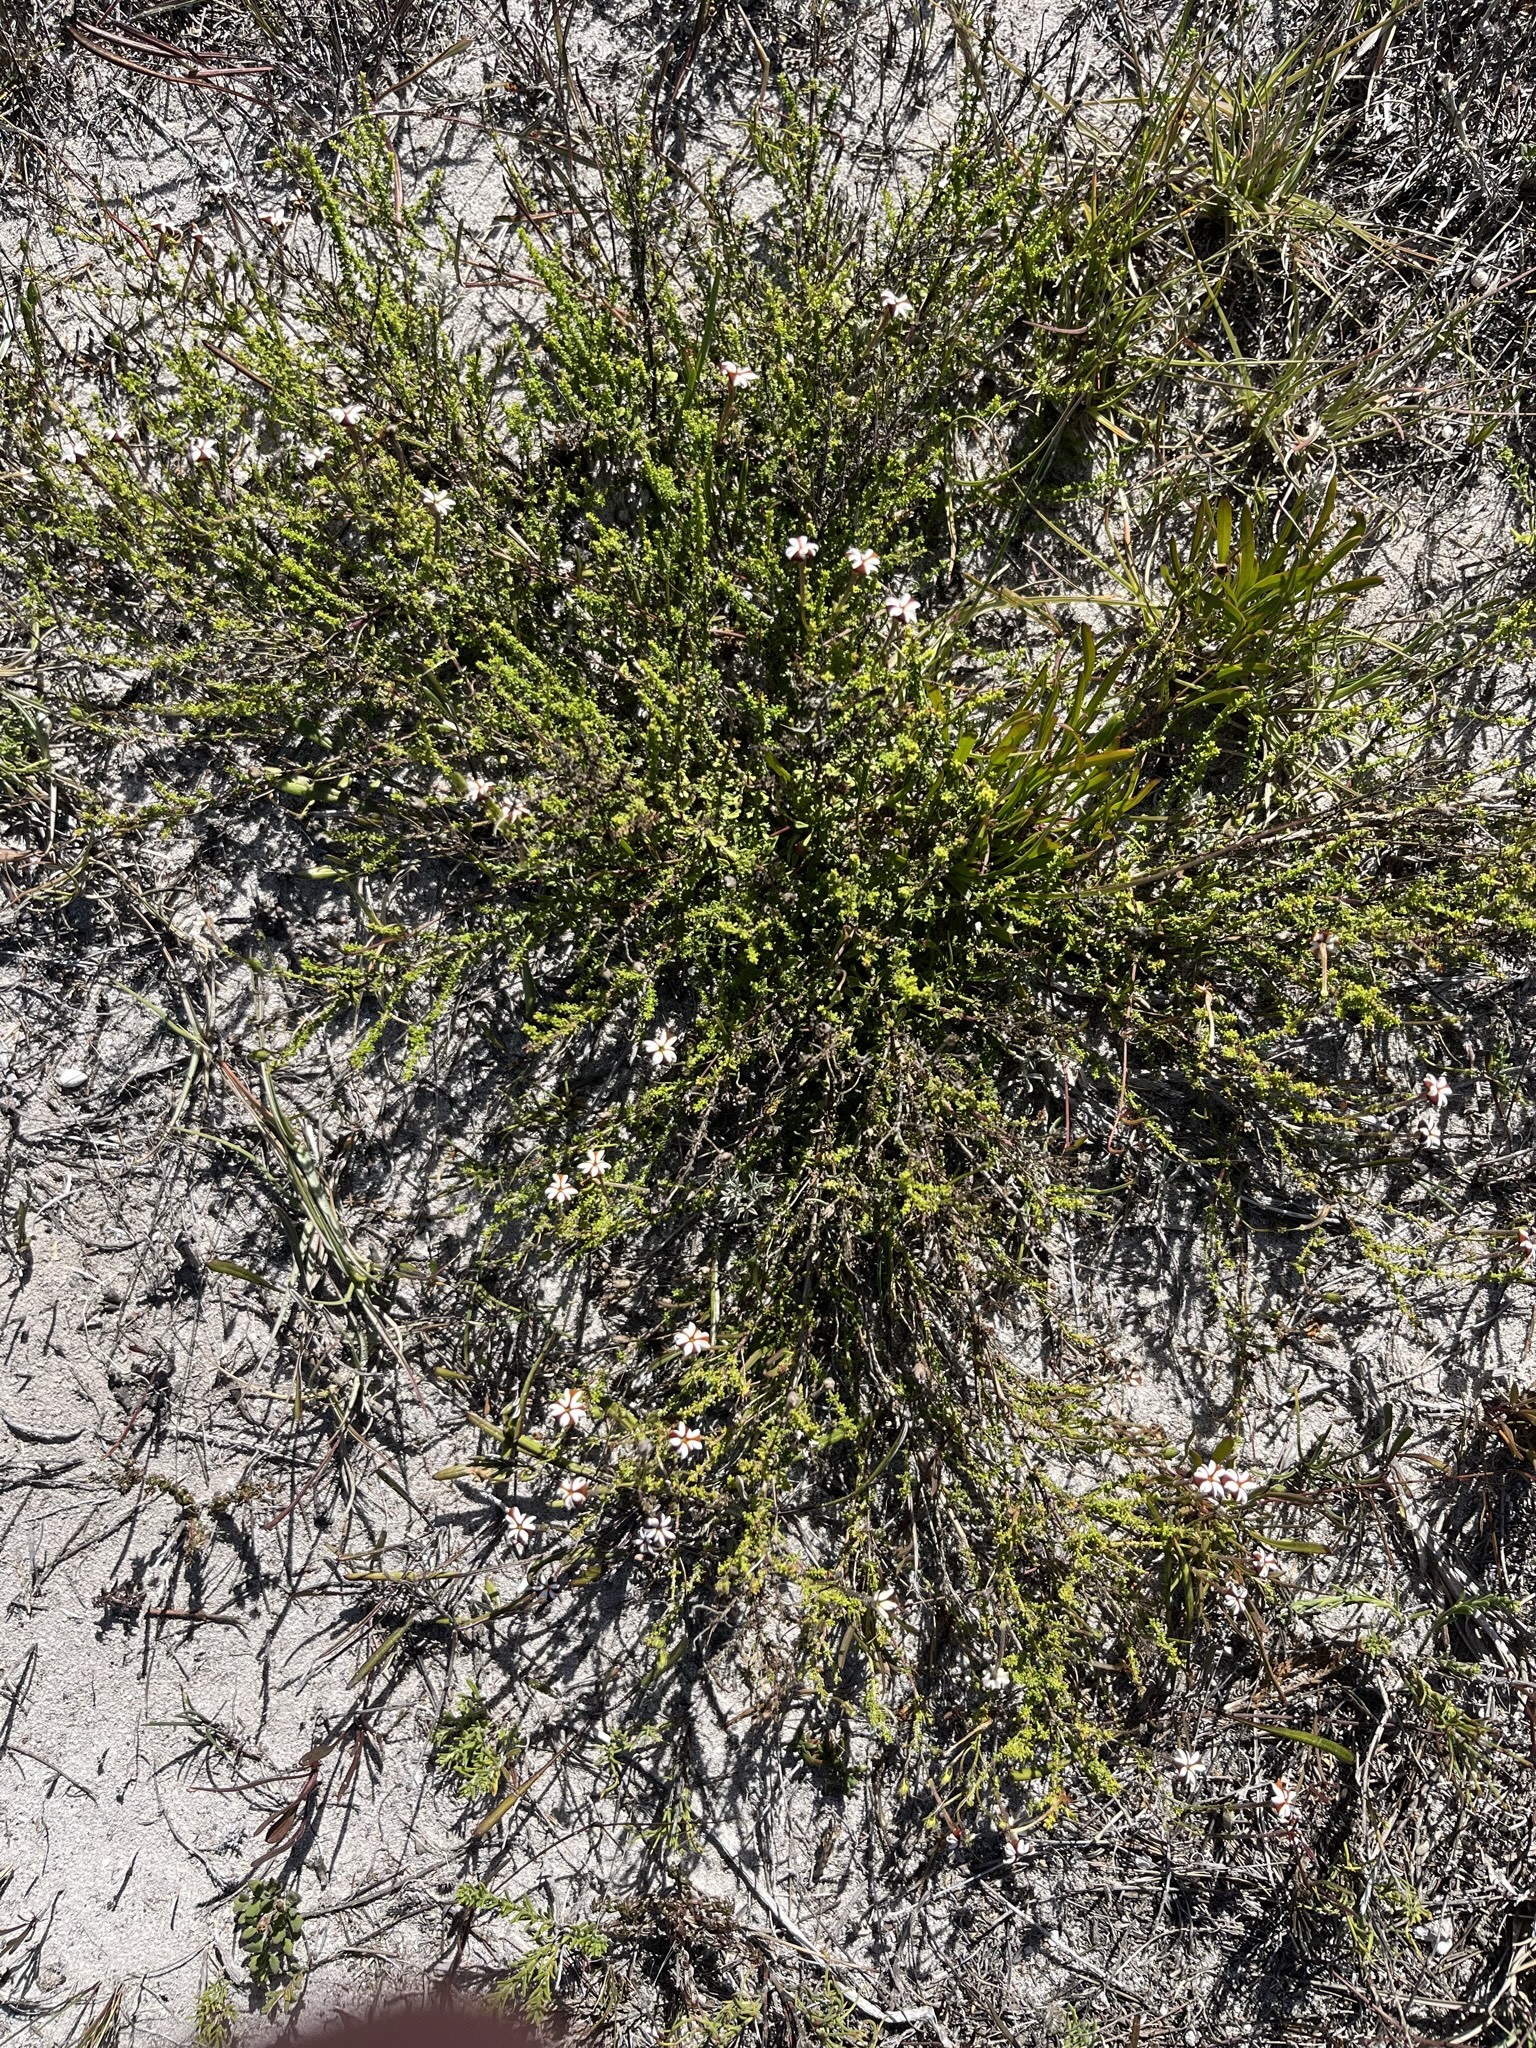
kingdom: Plantae
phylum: Tracheophyta
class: Magnoliopsida
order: Lamiales
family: Scrophulariaceae
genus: Jamesbrittenia
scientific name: Jamesbrittenia albomarginata
